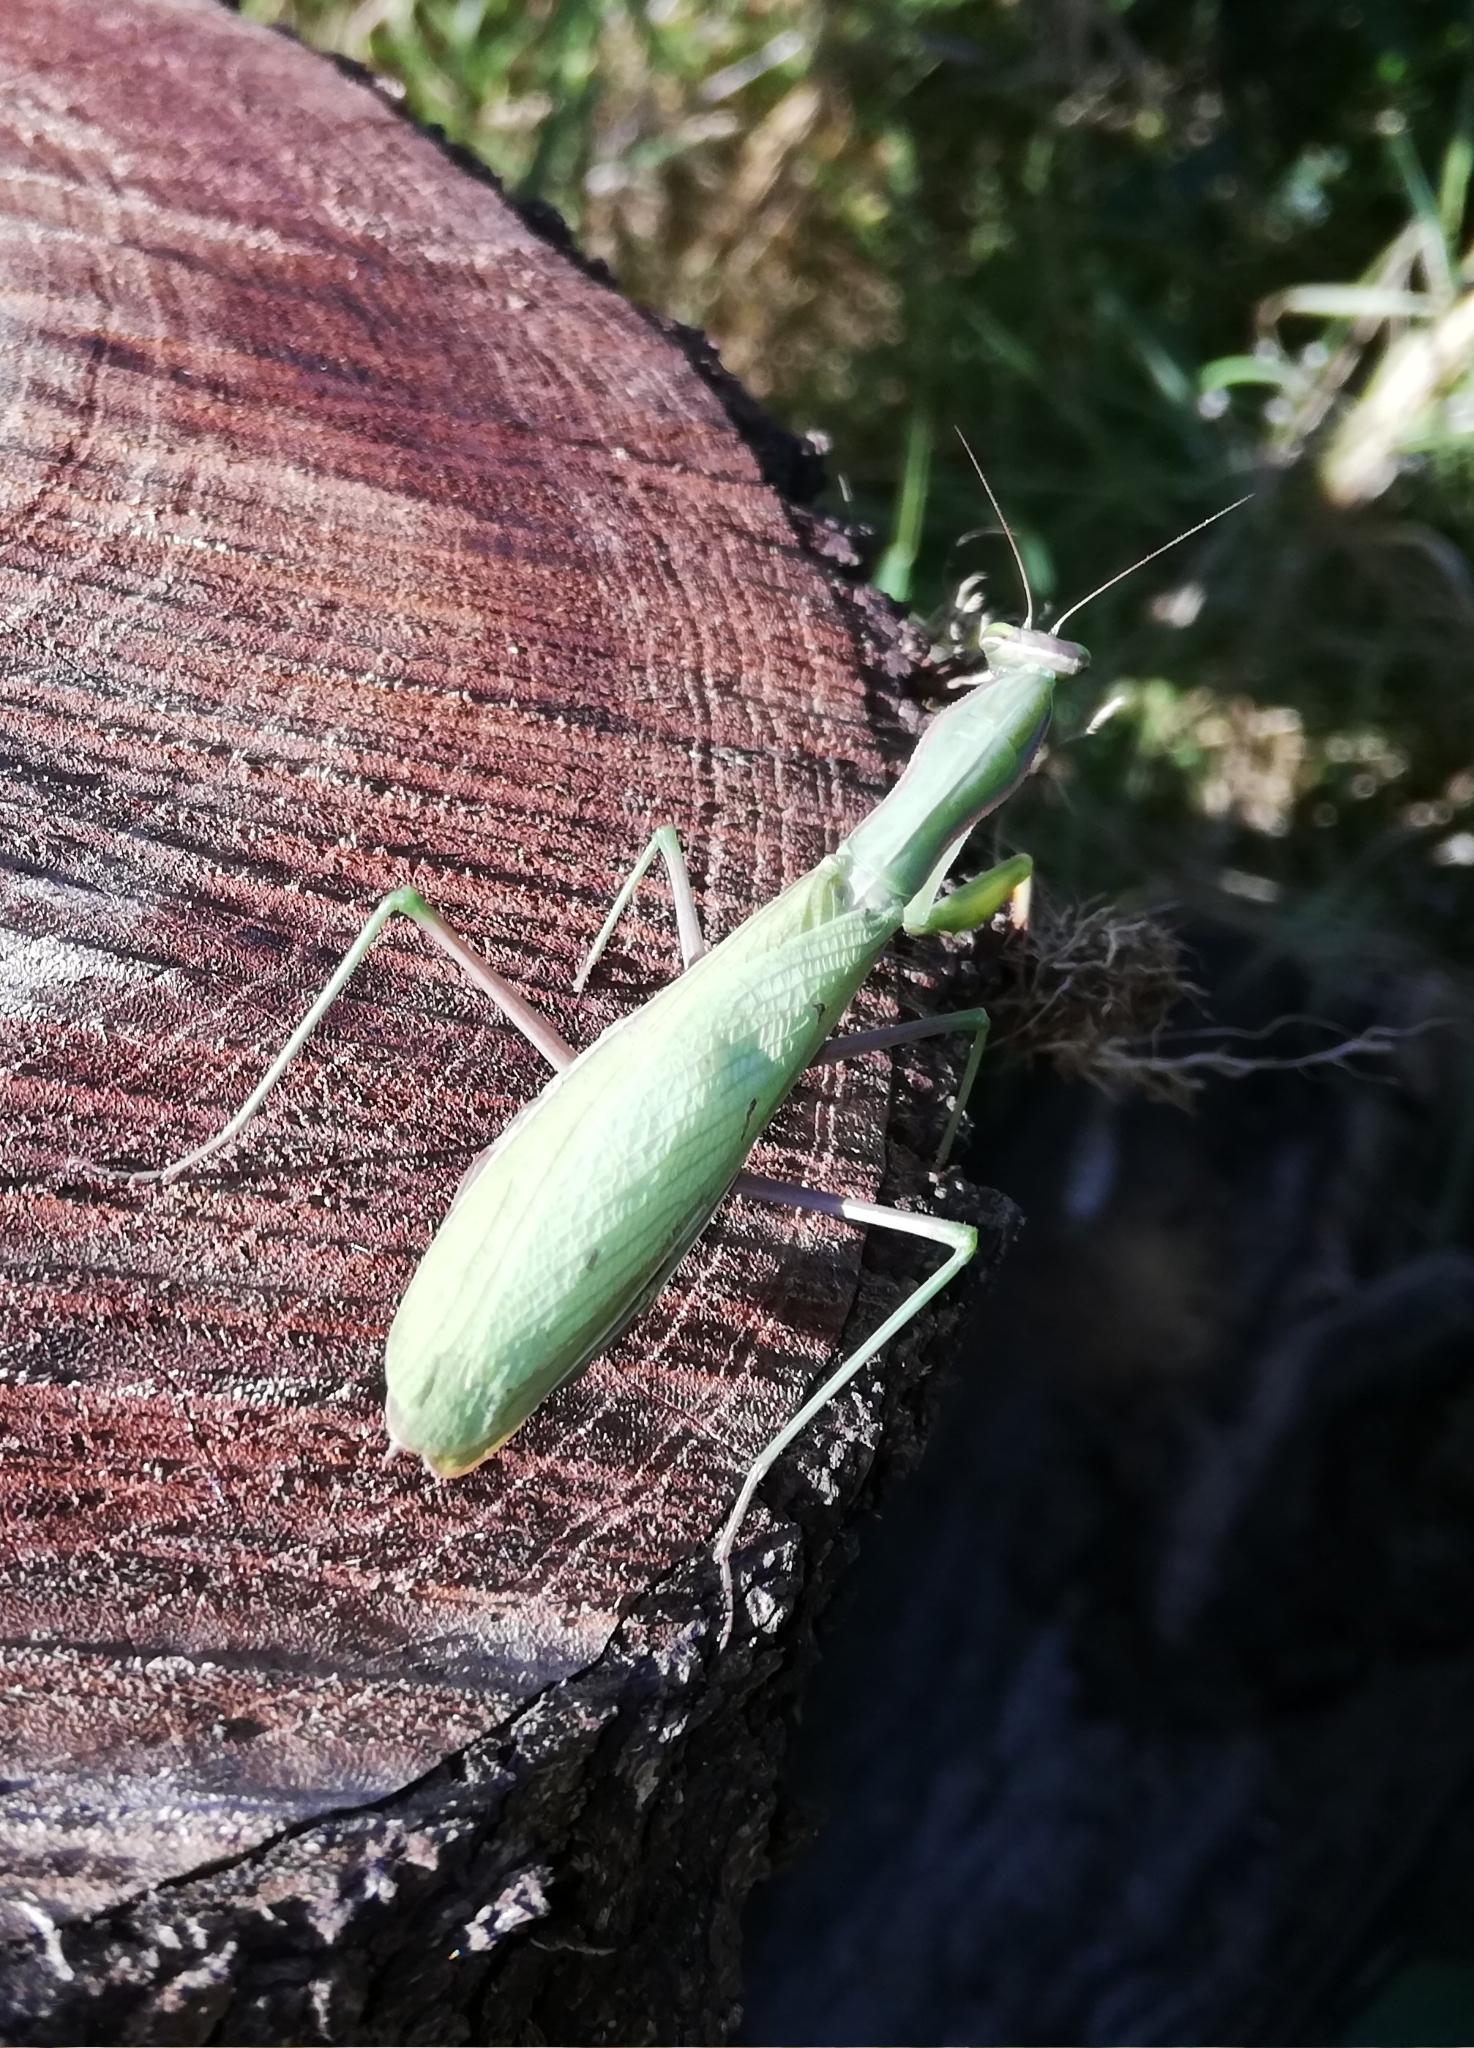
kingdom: Animalia
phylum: Arthropoda
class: Insecta
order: Mantodea
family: Mantidae
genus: Mantis
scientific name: Mantis religiosa
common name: Praying mantis
